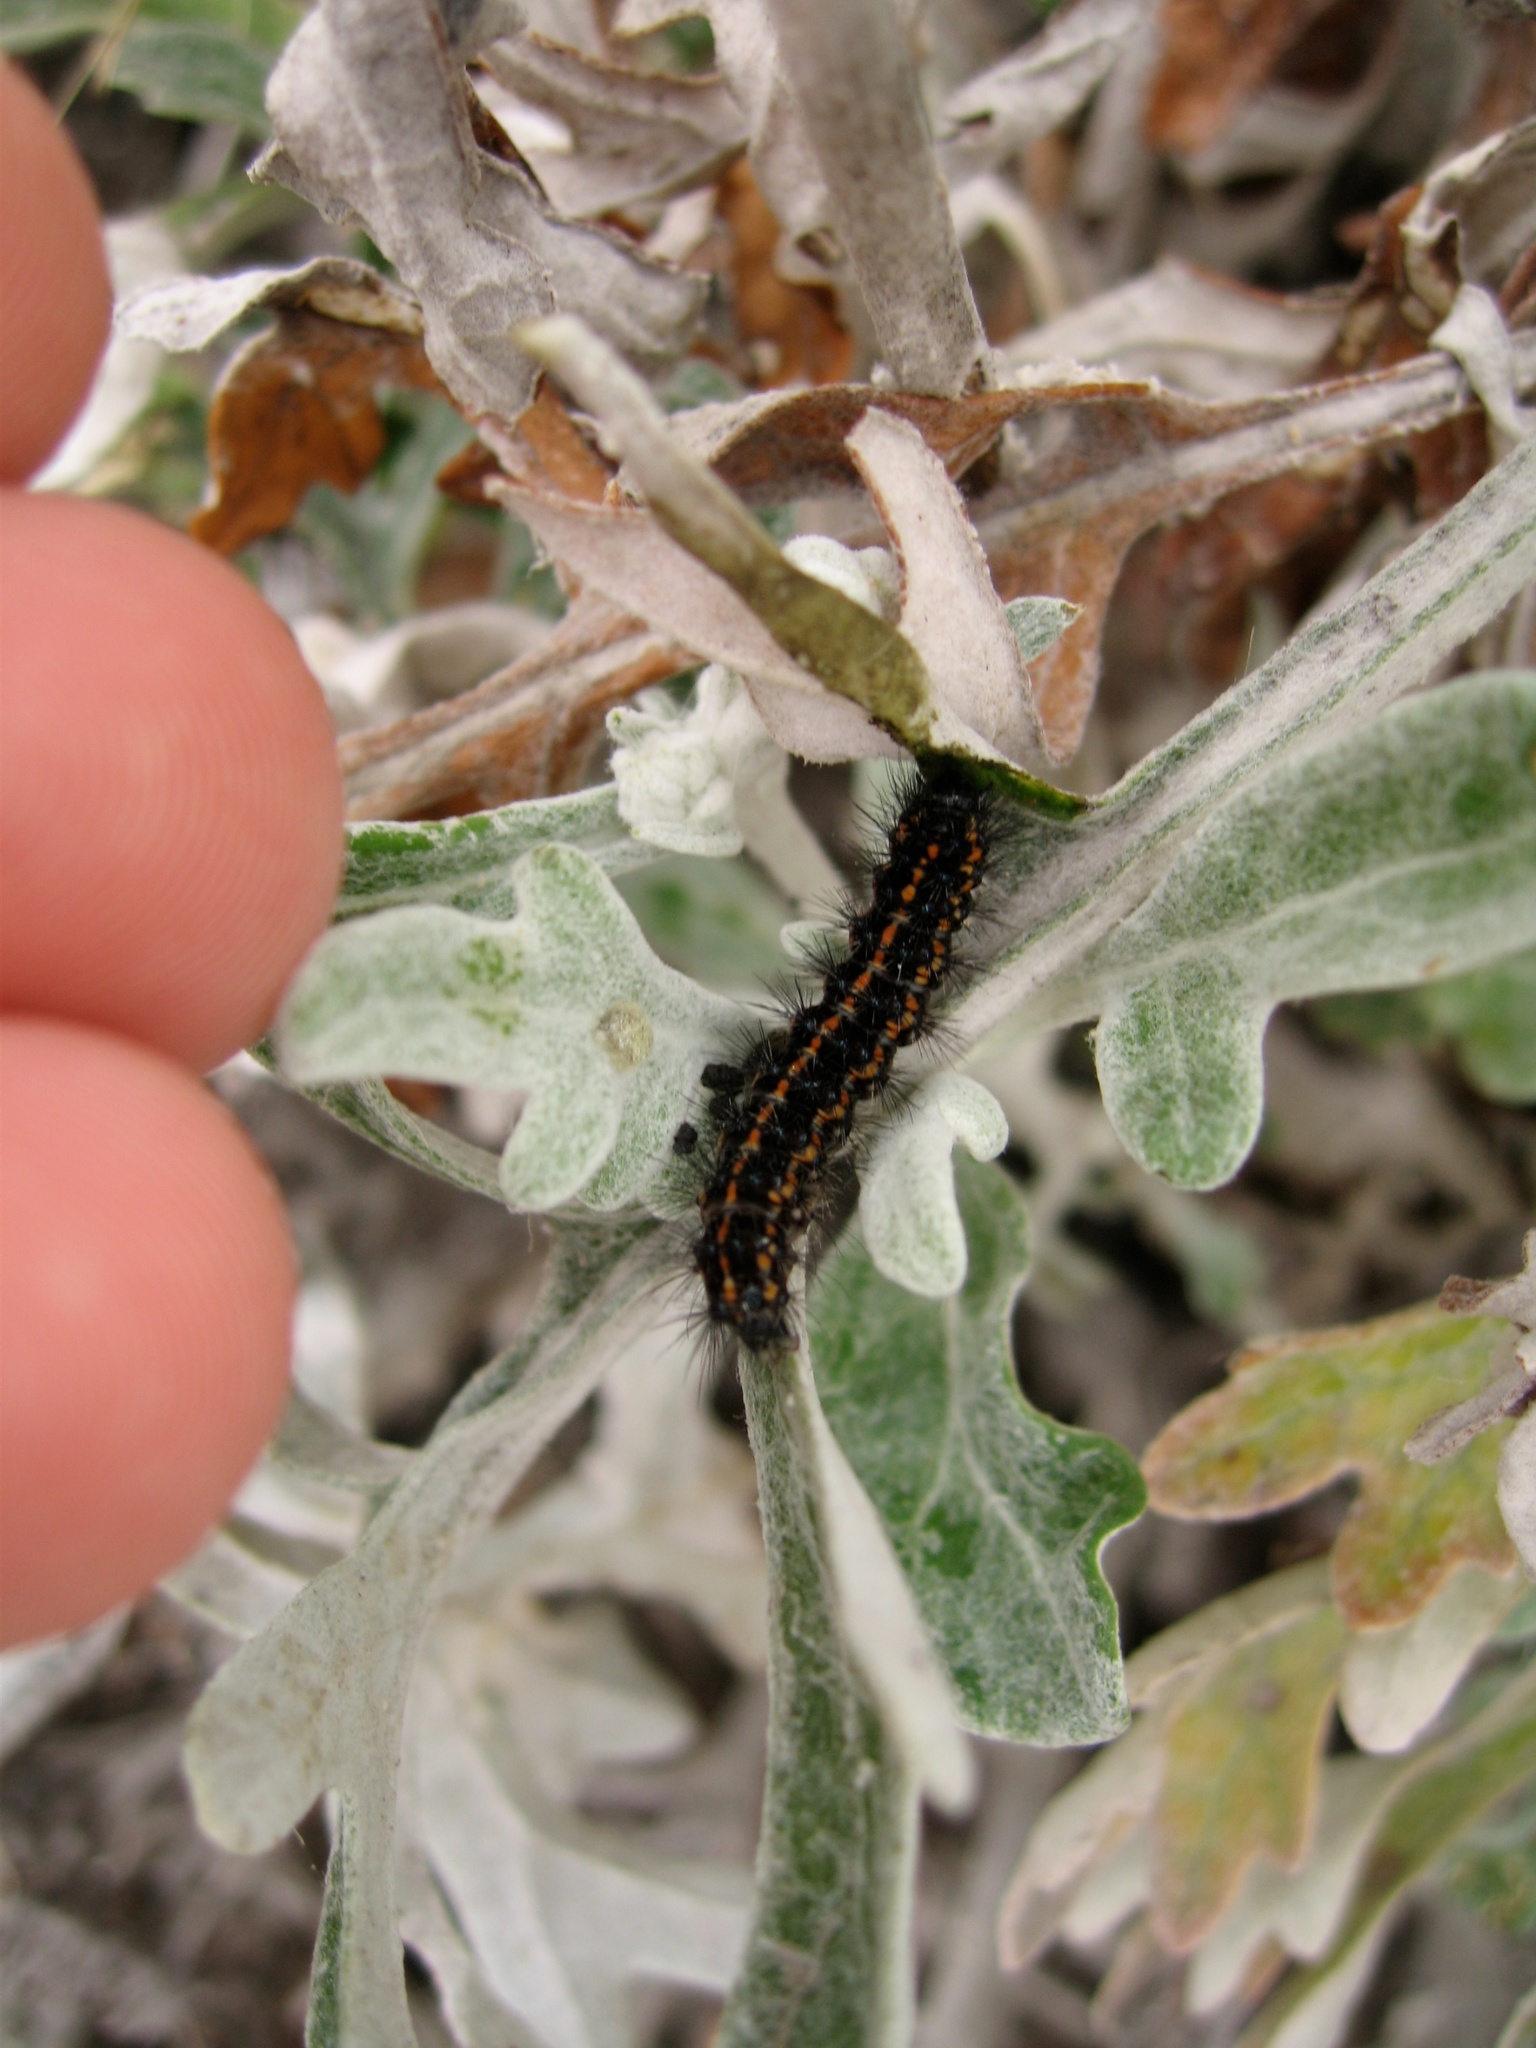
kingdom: Animalia
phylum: Arthropoda
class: Insecta
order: Lepidoptera
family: Erebidae
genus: Nyctemera
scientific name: Nyctemera annulatum
